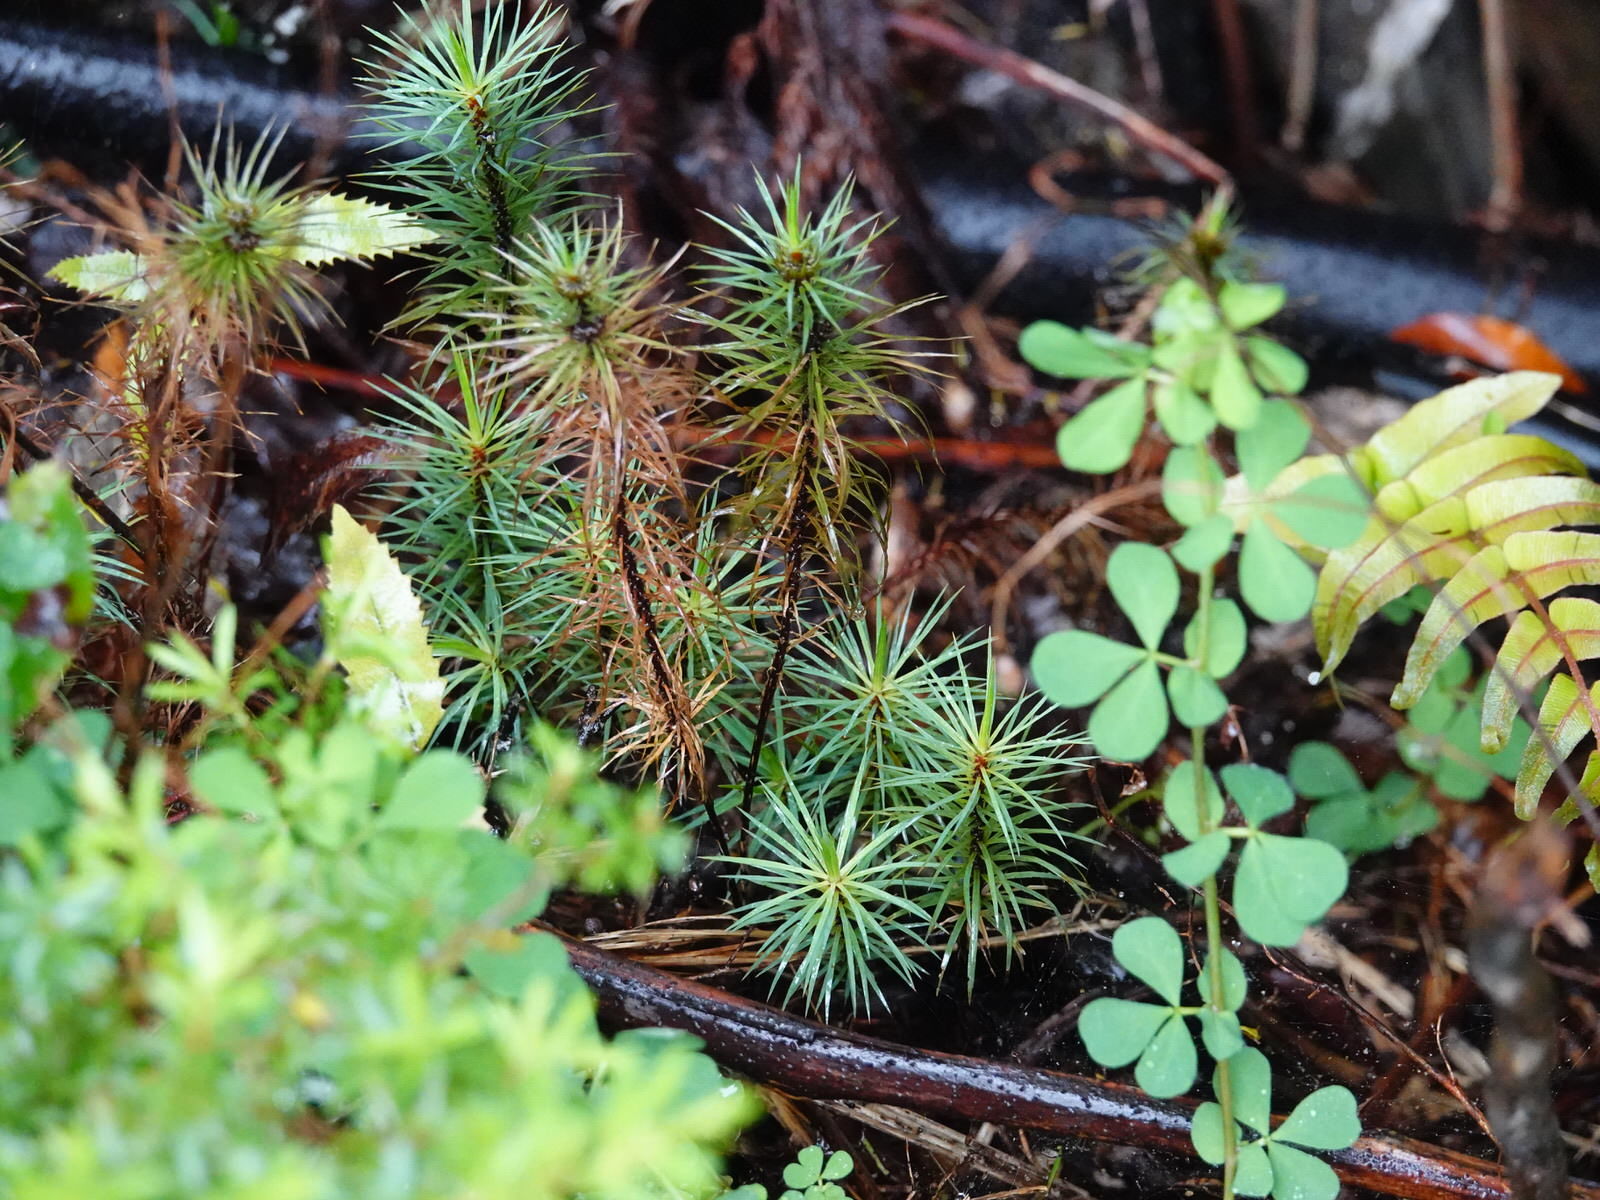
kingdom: Plantae
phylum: Bryophyta
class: Polytrichopsida
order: Polytrichales
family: Polytrichaceae
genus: Dawsonia
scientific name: Dawsonia superba
